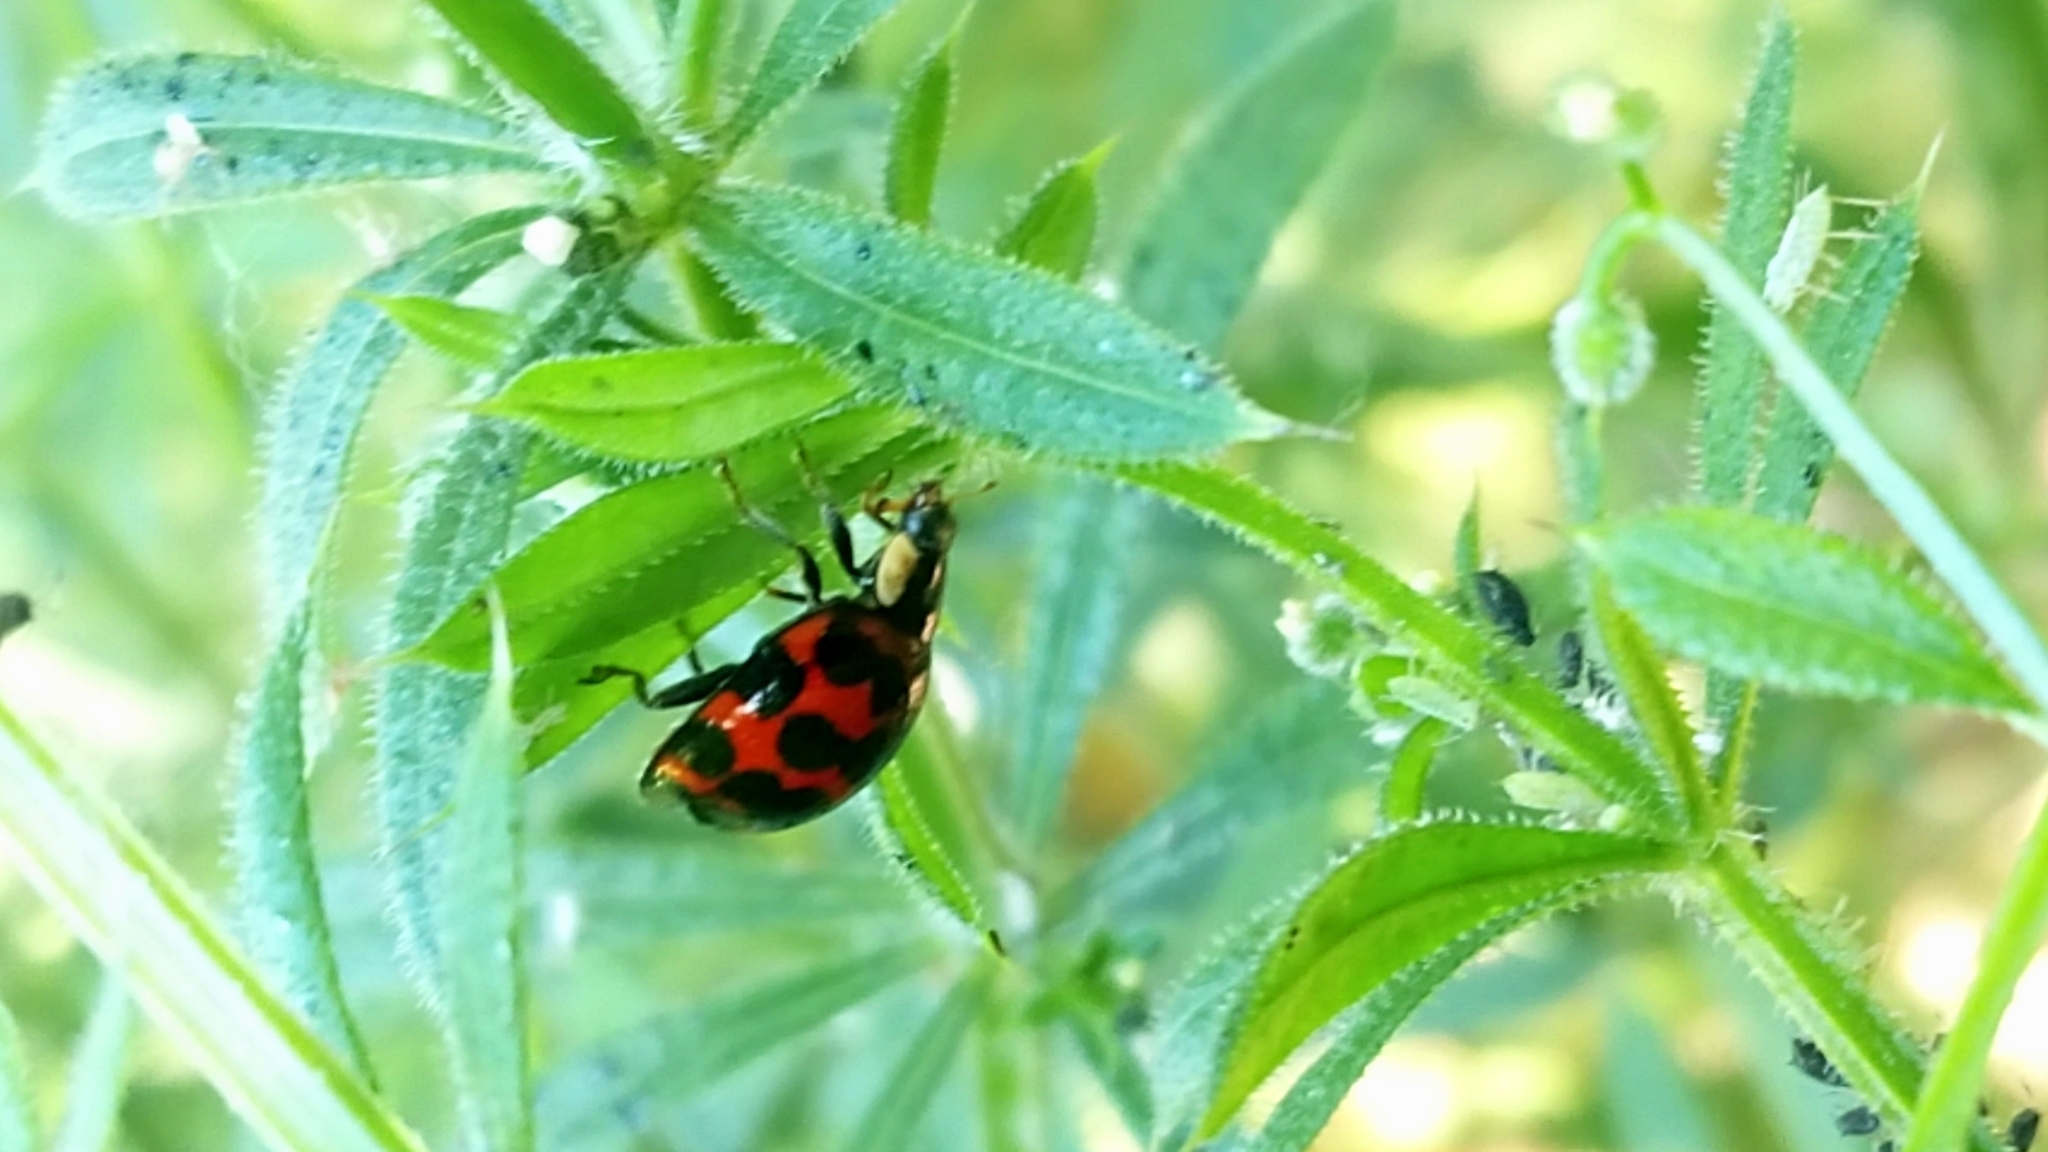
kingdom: Animalia
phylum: Arthropoda
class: Insecta
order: Coleoptera
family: Coccinellidae
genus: Harmonia
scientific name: Harmonia axyridis
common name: Harlequin ladybird
